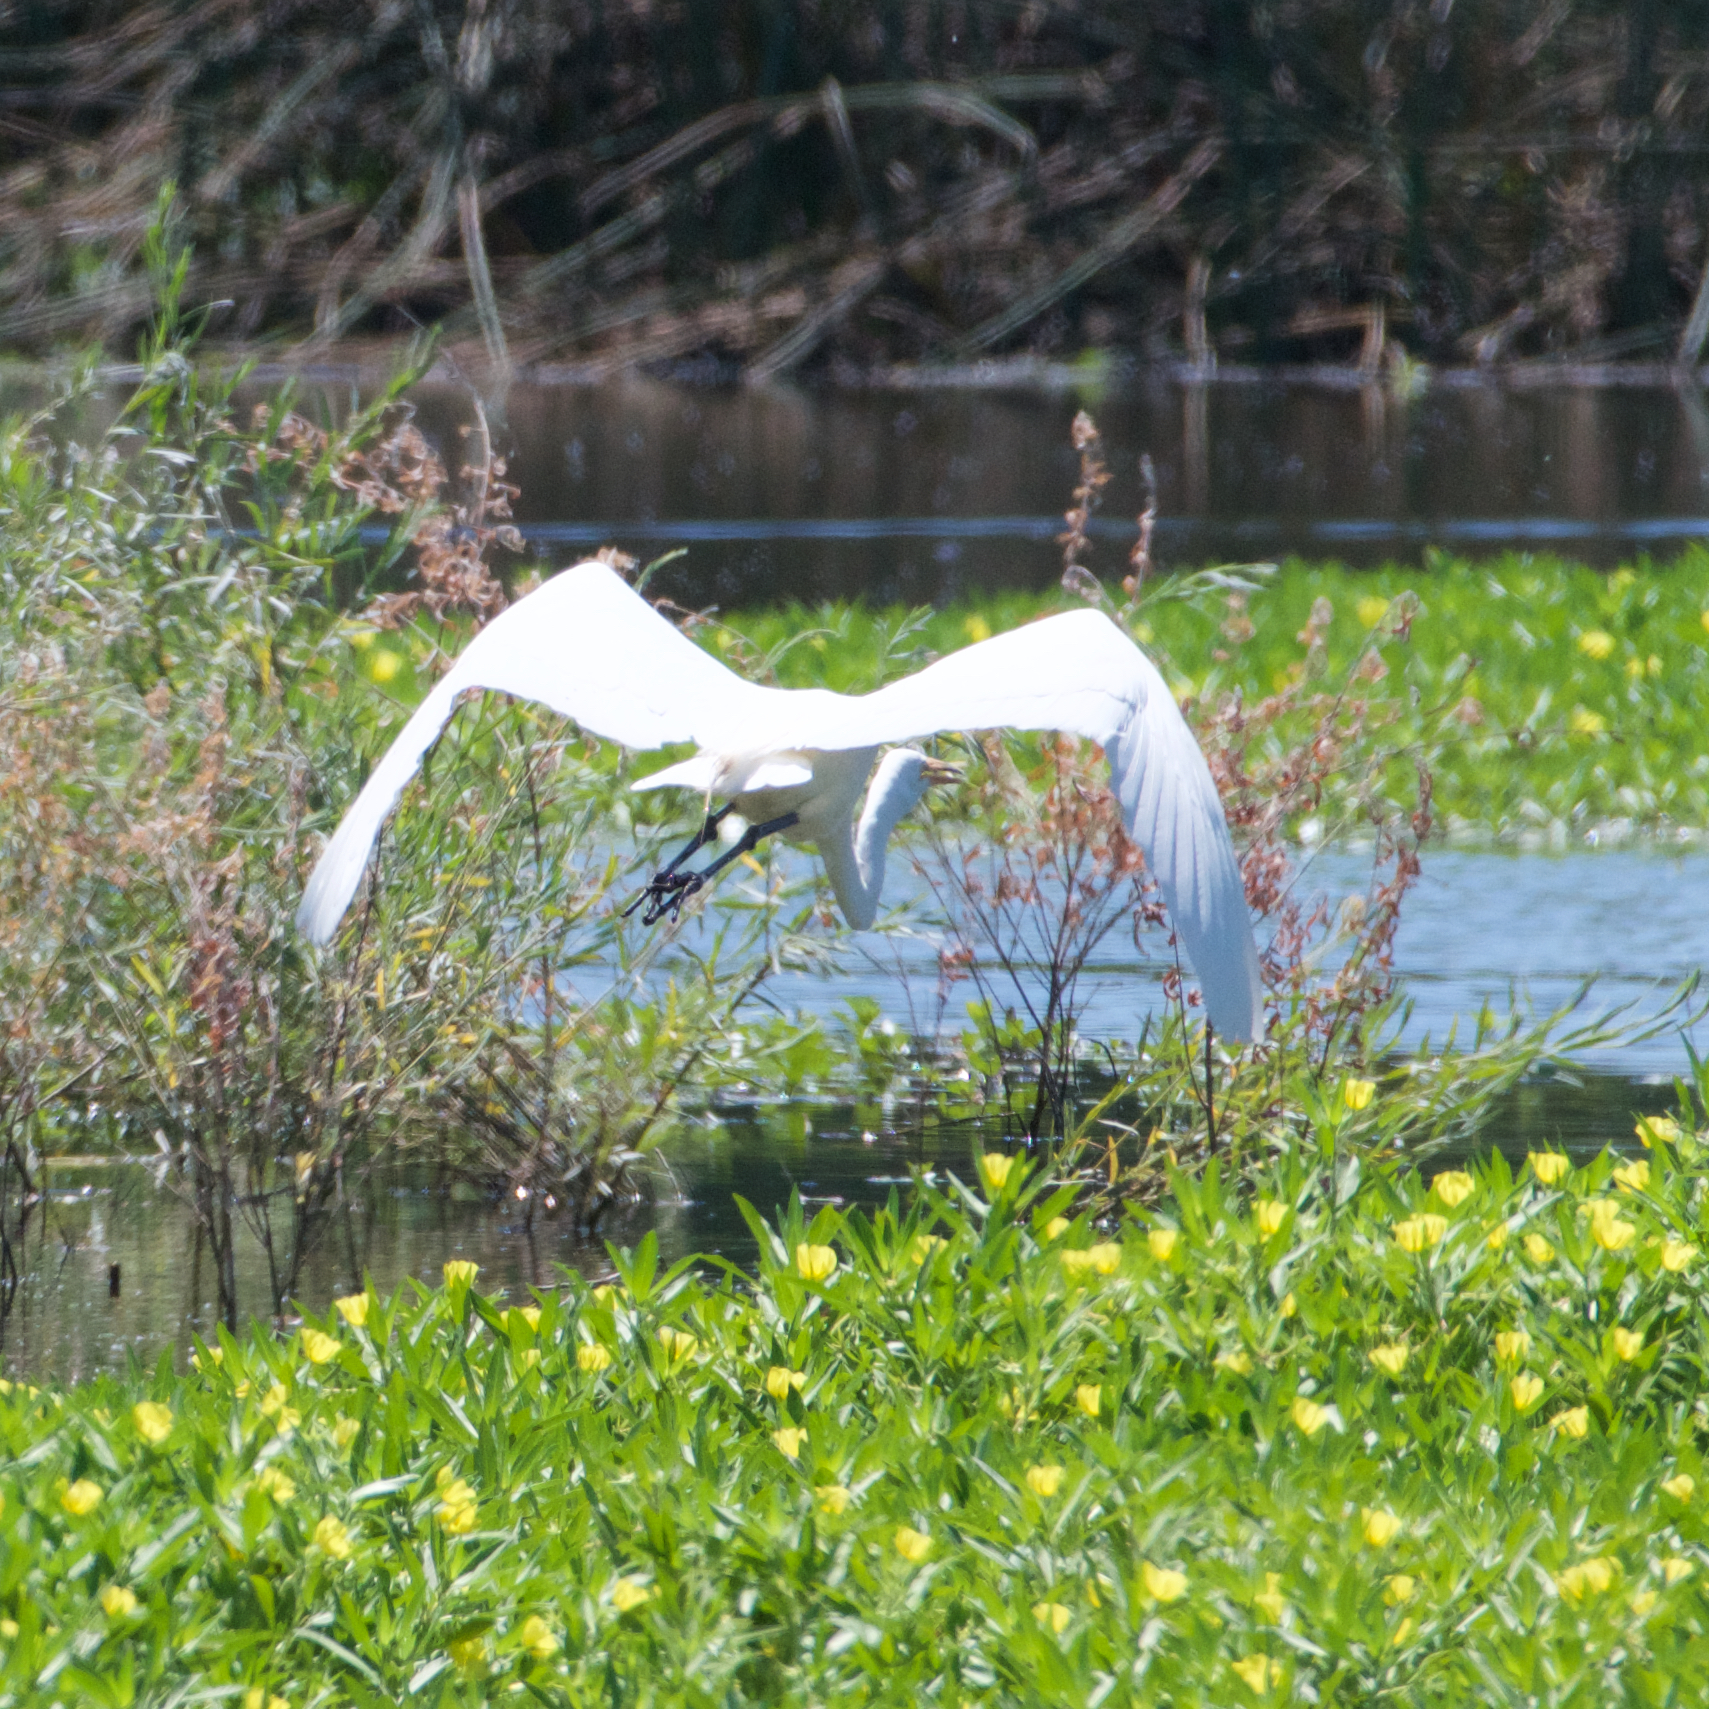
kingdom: Animalia
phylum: Chordata
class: Aves
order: Pelecaniformes
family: Ardeidae
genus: Ardea
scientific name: Ardea alba
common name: Great egret
